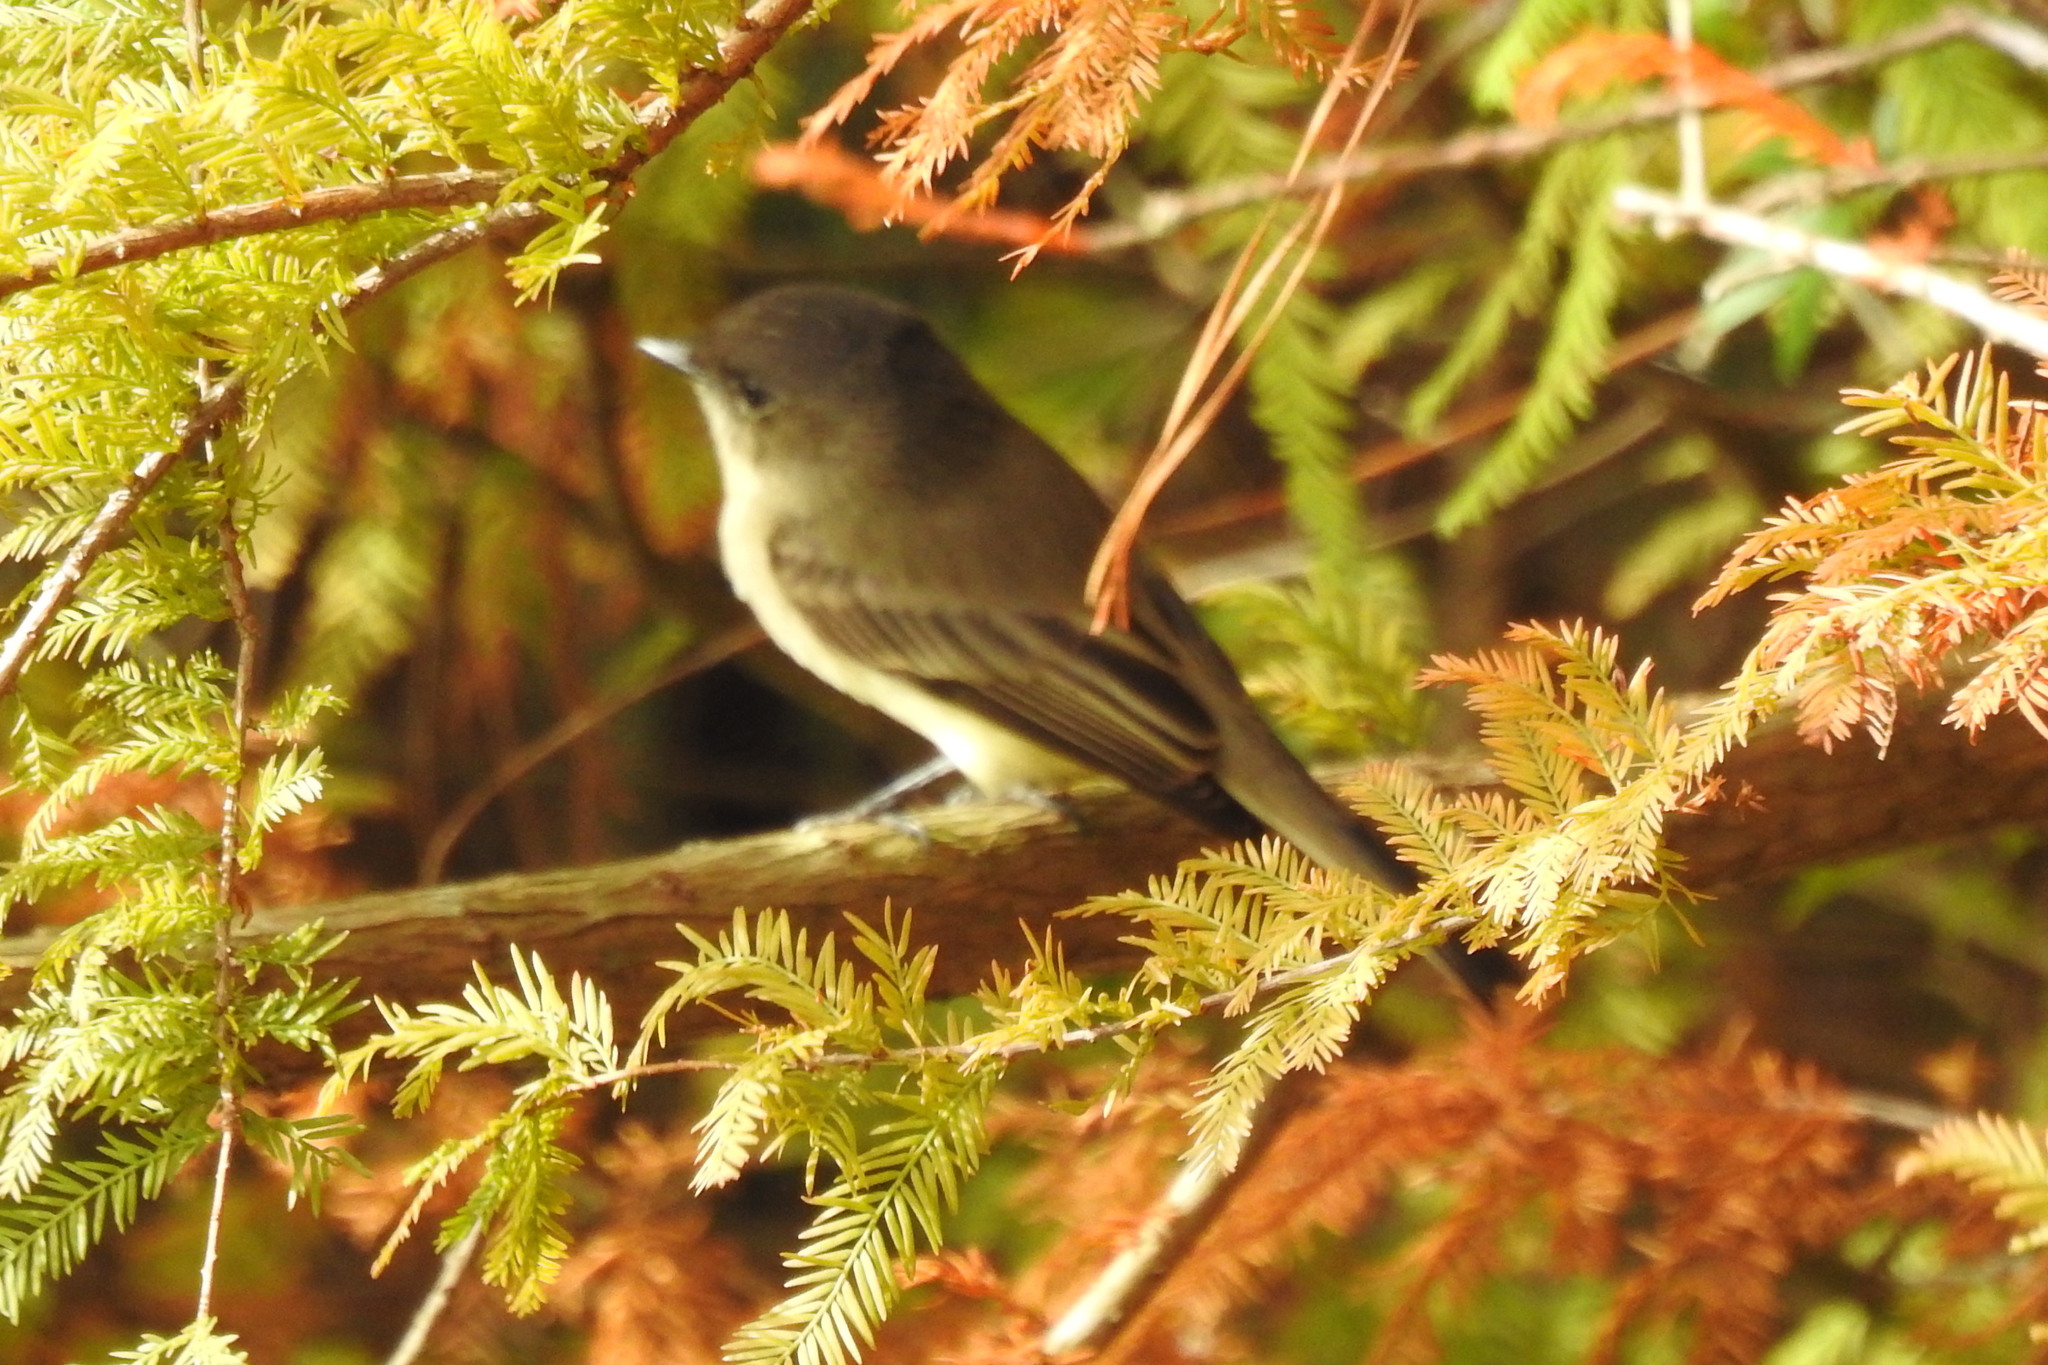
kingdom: Animalia
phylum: Chordata
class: Aves
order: Passeriformes
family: Tyrannidae
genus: Sayornis
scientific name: Sayornis phoebe
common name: Eastern phoebe
